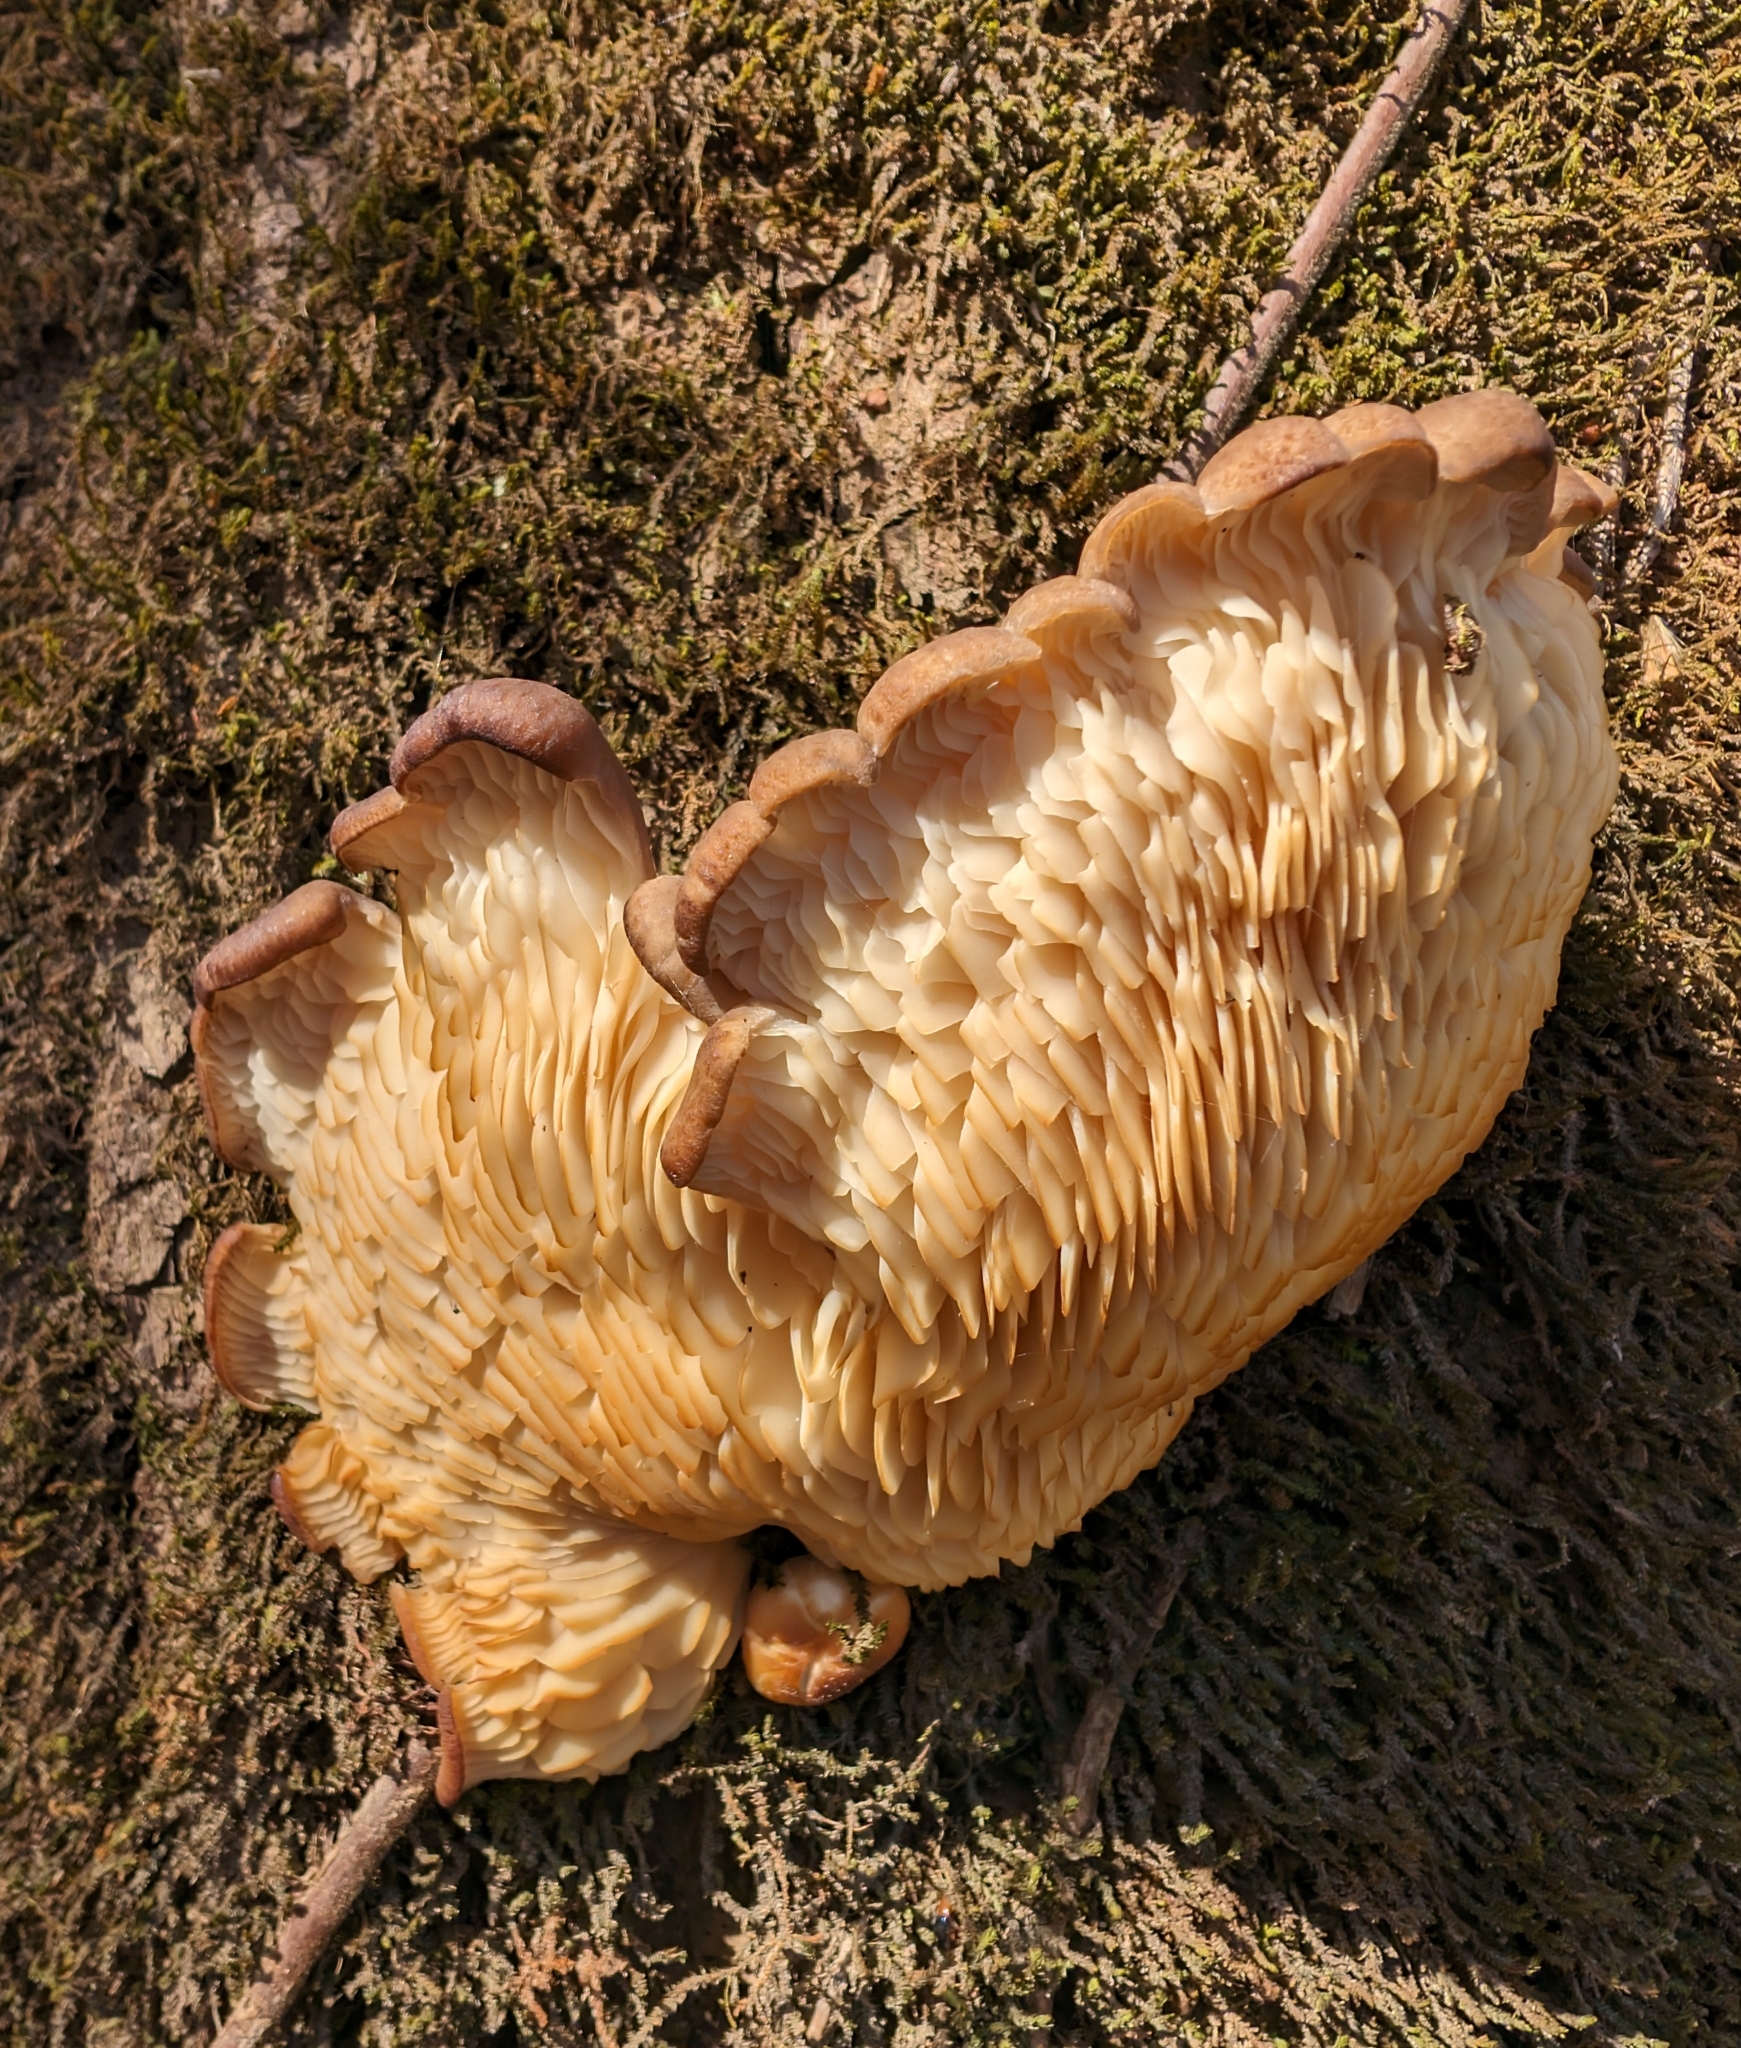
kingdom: Fungi
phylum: Basidiomycota
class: Agaricomycetes
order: Agaricales
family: Pleurotaceae
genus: Pleurotus
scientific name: Pleurotus ostreatus
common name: Oyster mushroom
